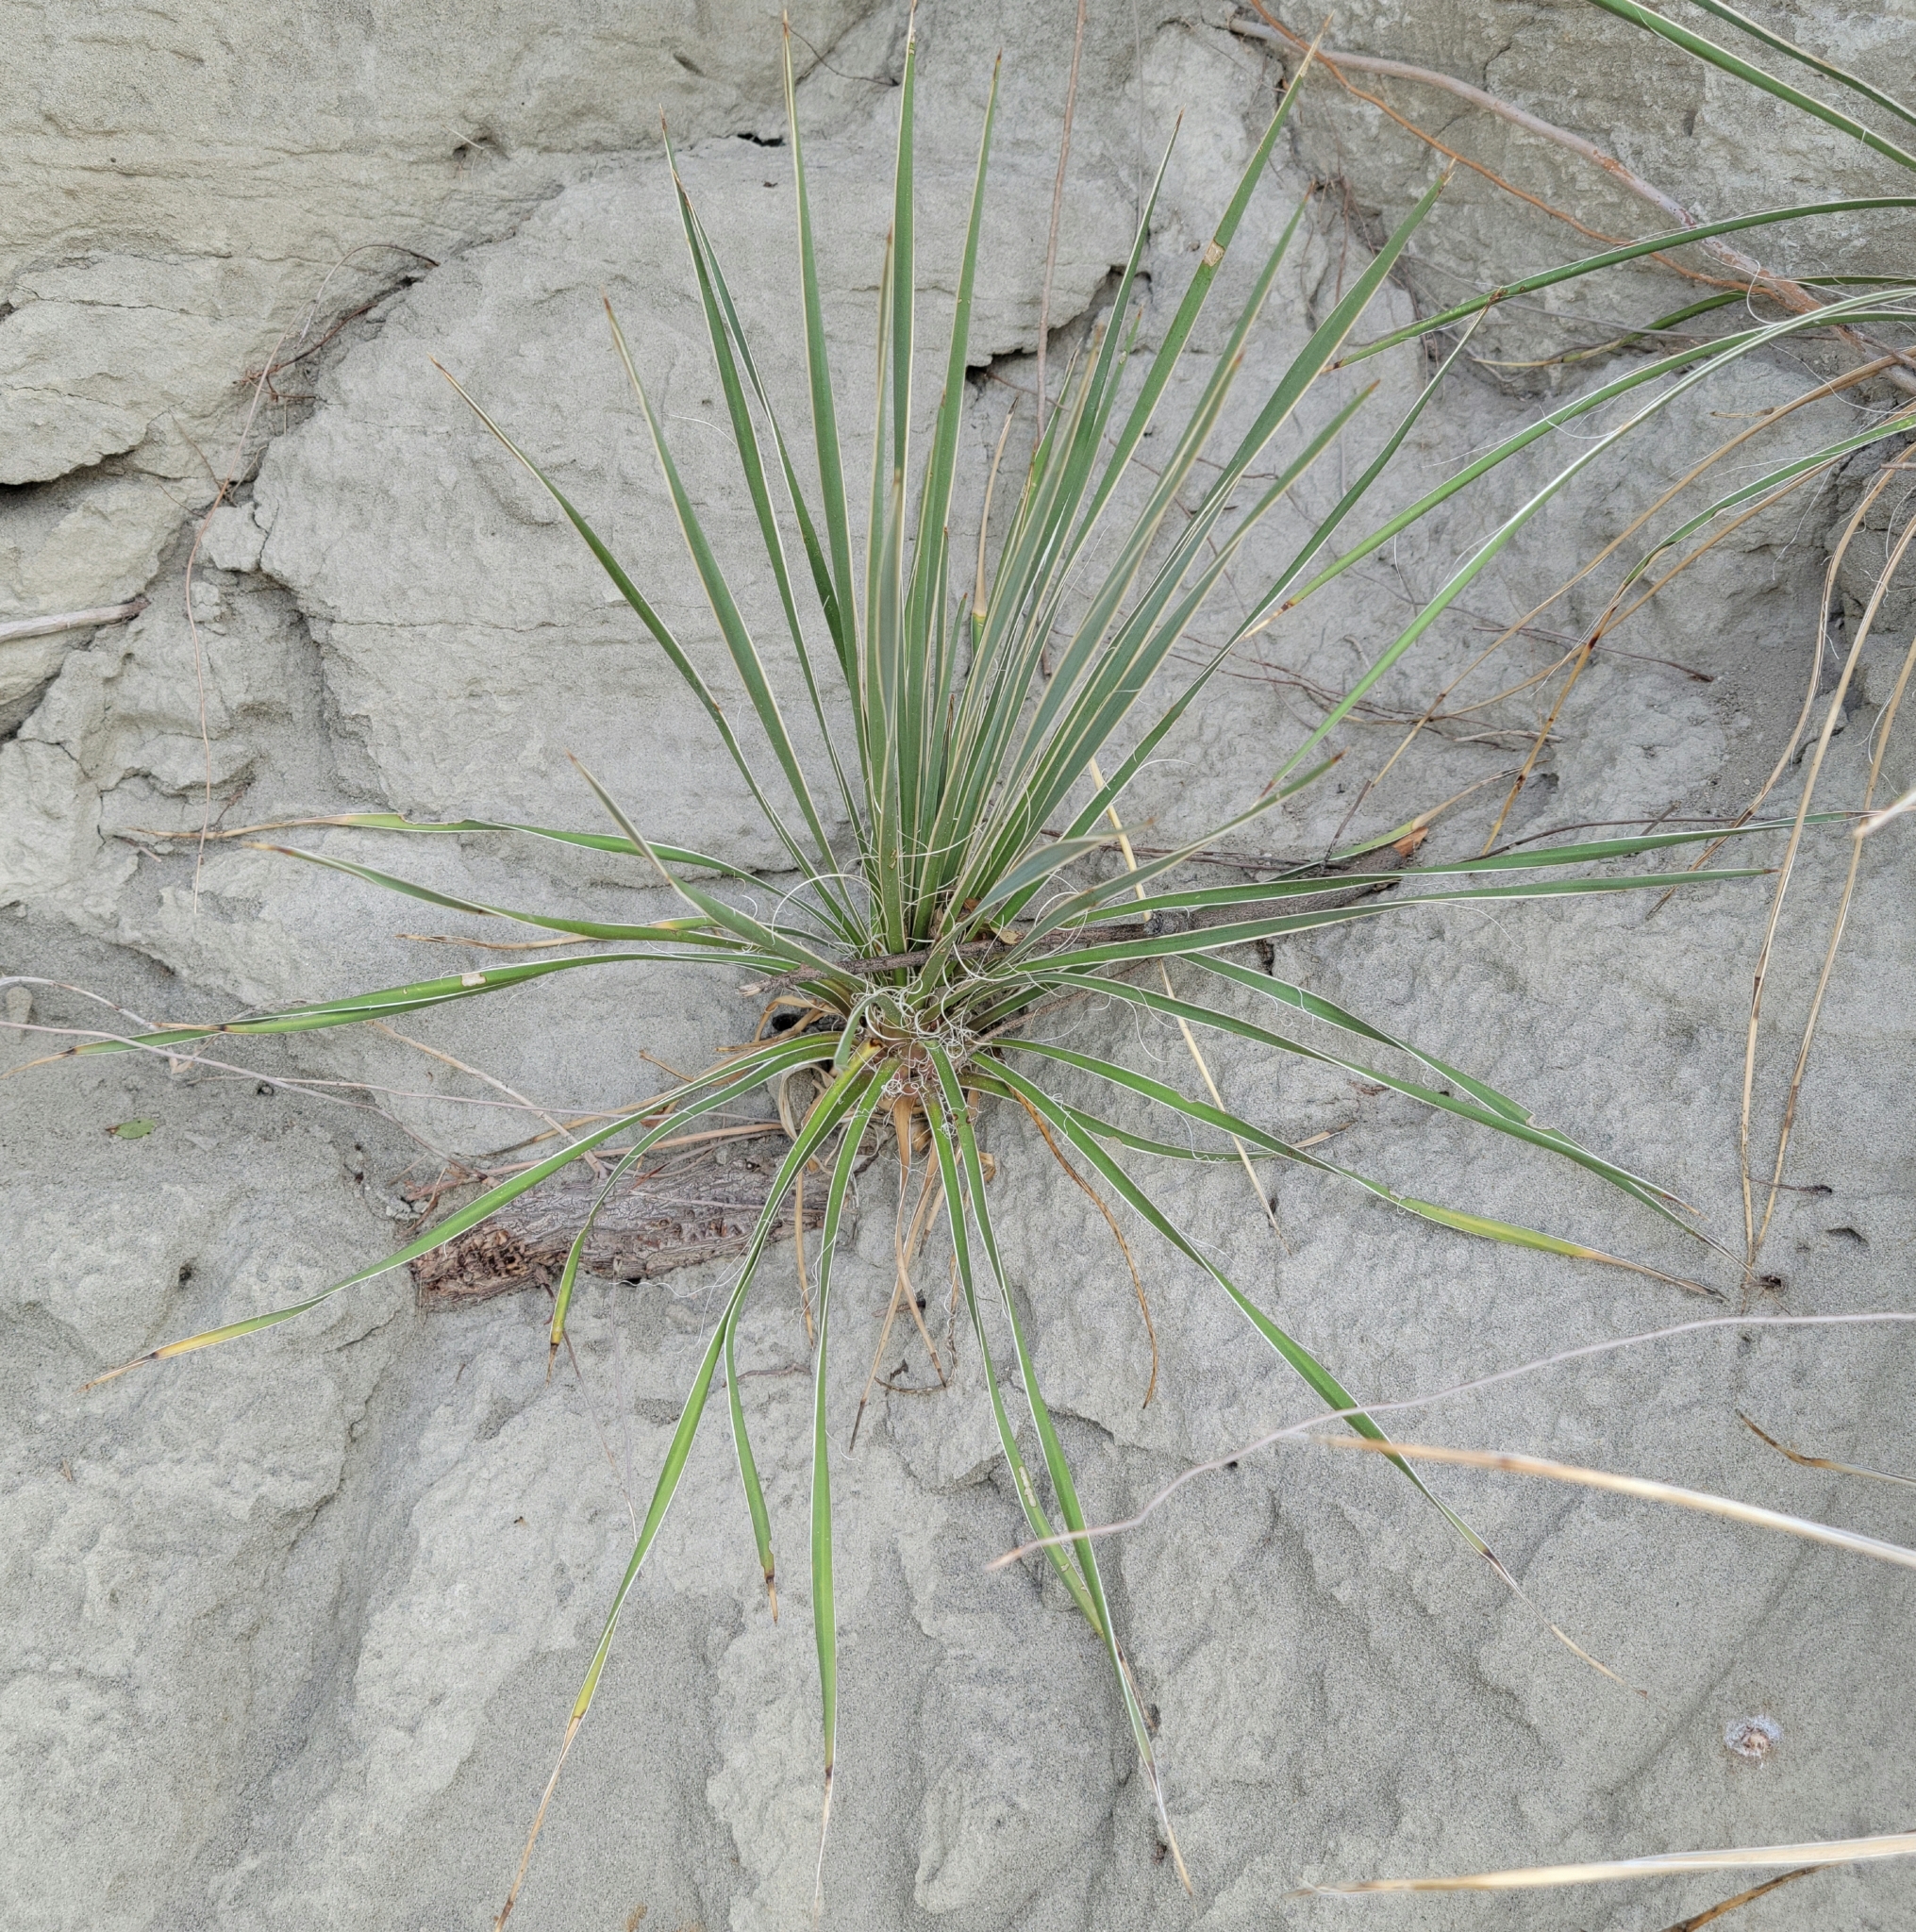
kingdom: Plantae
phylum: Tracheophyta
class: Liliopsida
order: Asparagales
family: Asparagaceae
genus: Yucca
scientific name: Yucca glauca
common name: Great plains yucca
